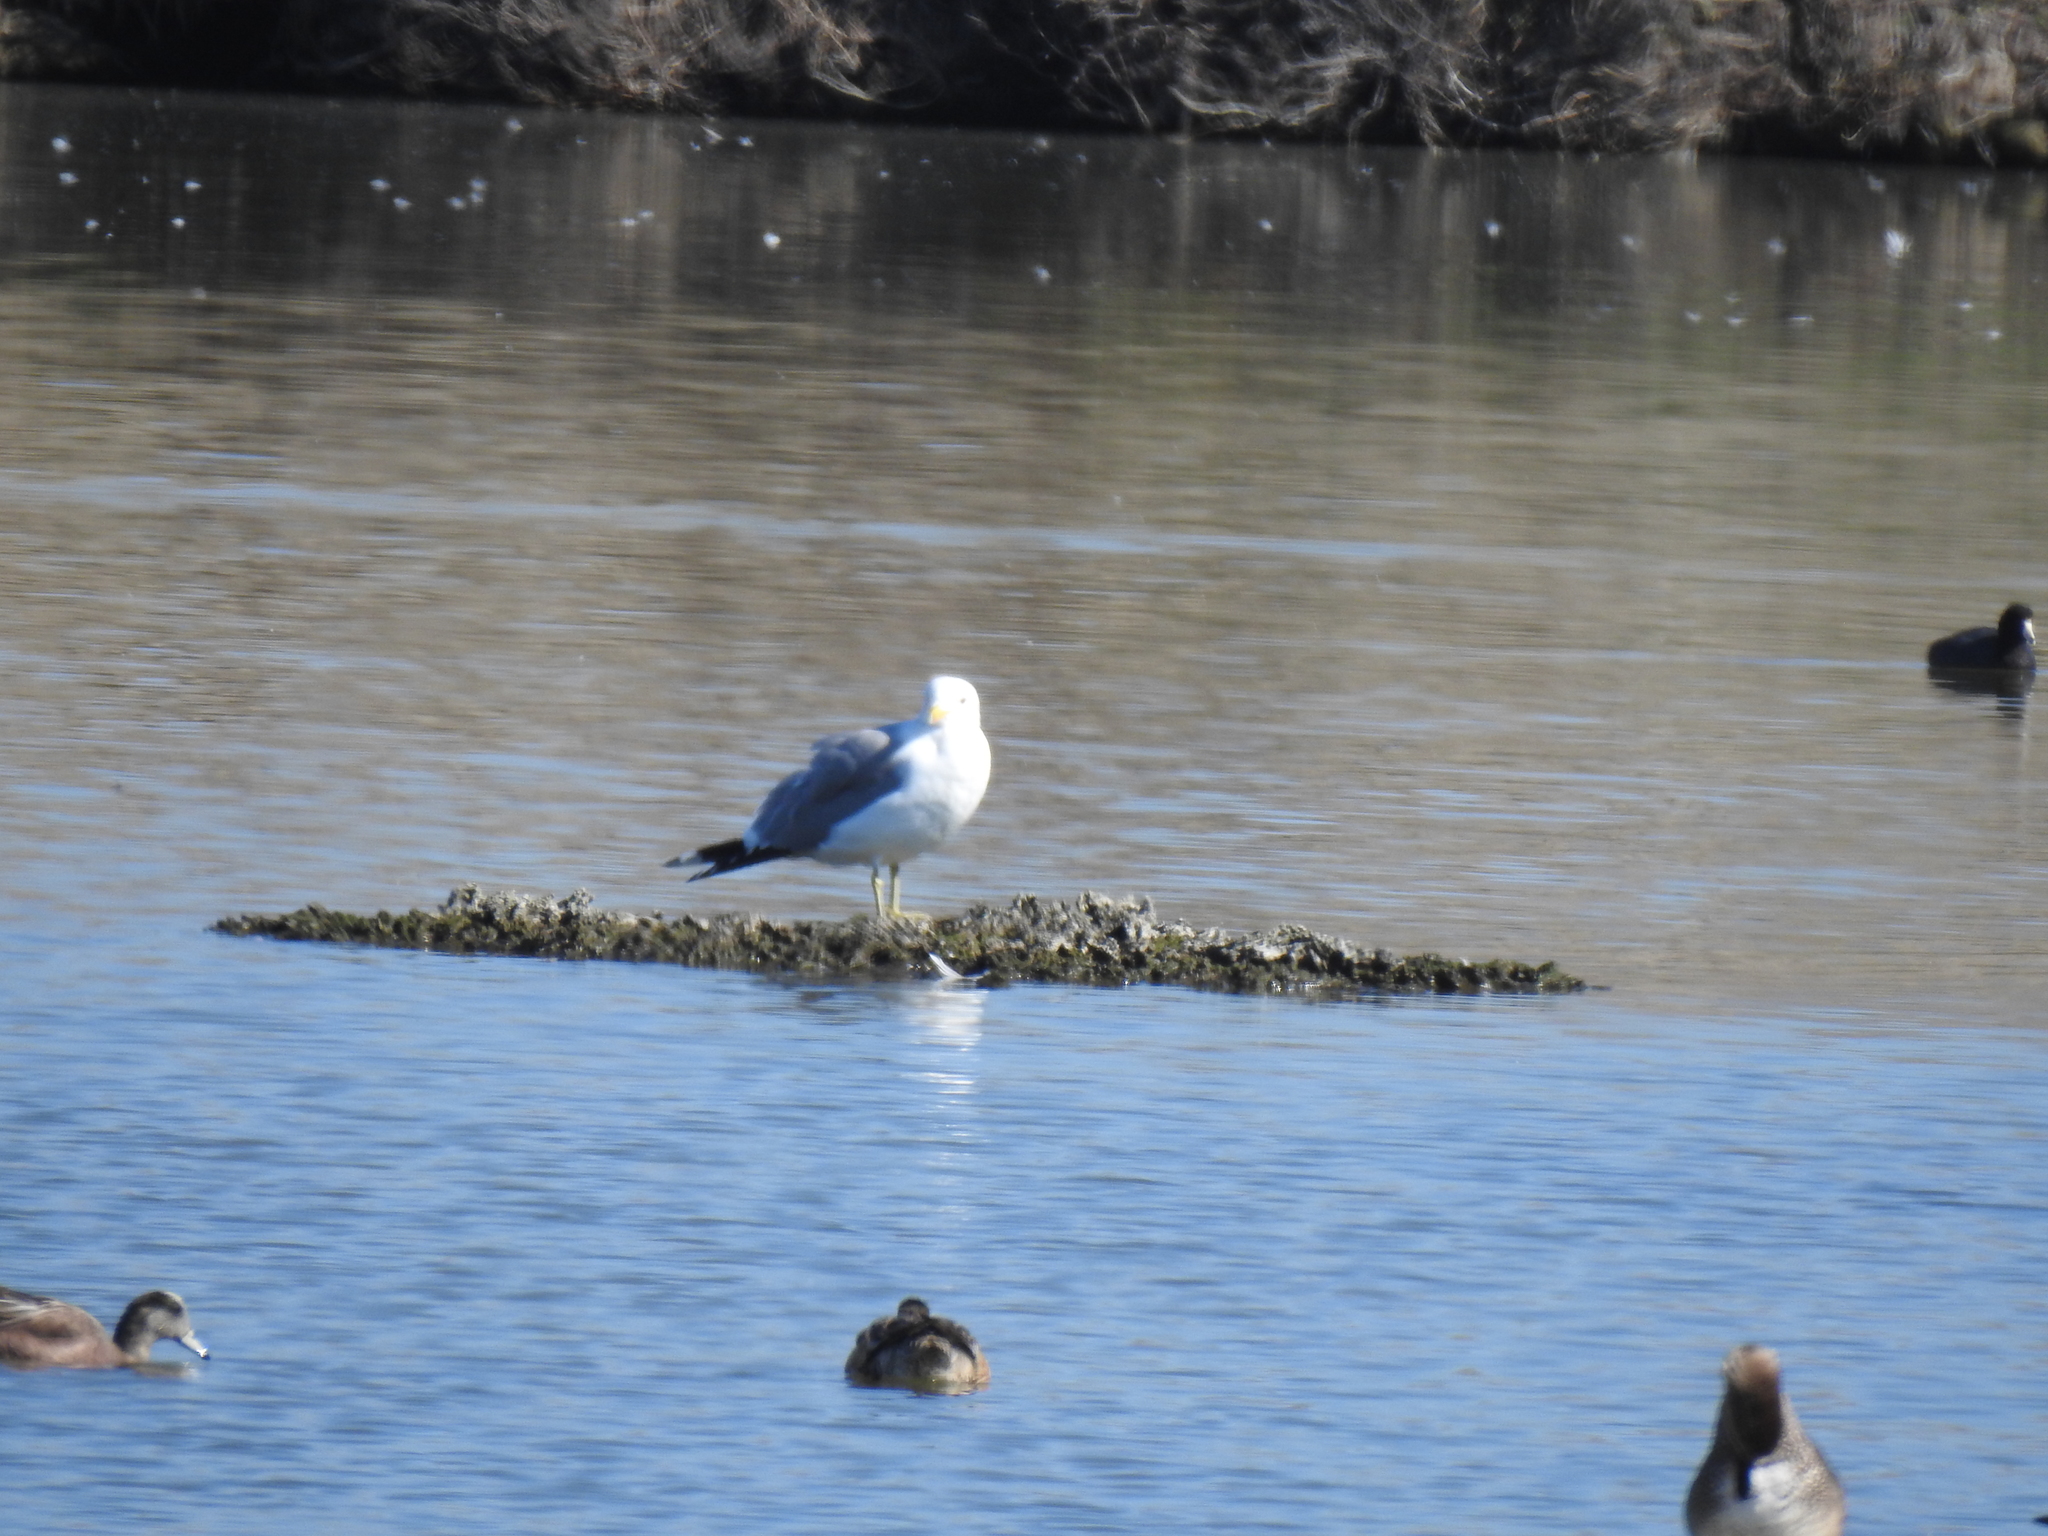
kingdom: Animalia
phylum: Chordata
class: Aves
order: Charadriiformes
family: Laridae
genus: Larus
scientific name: Larus californicus
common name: California gull
